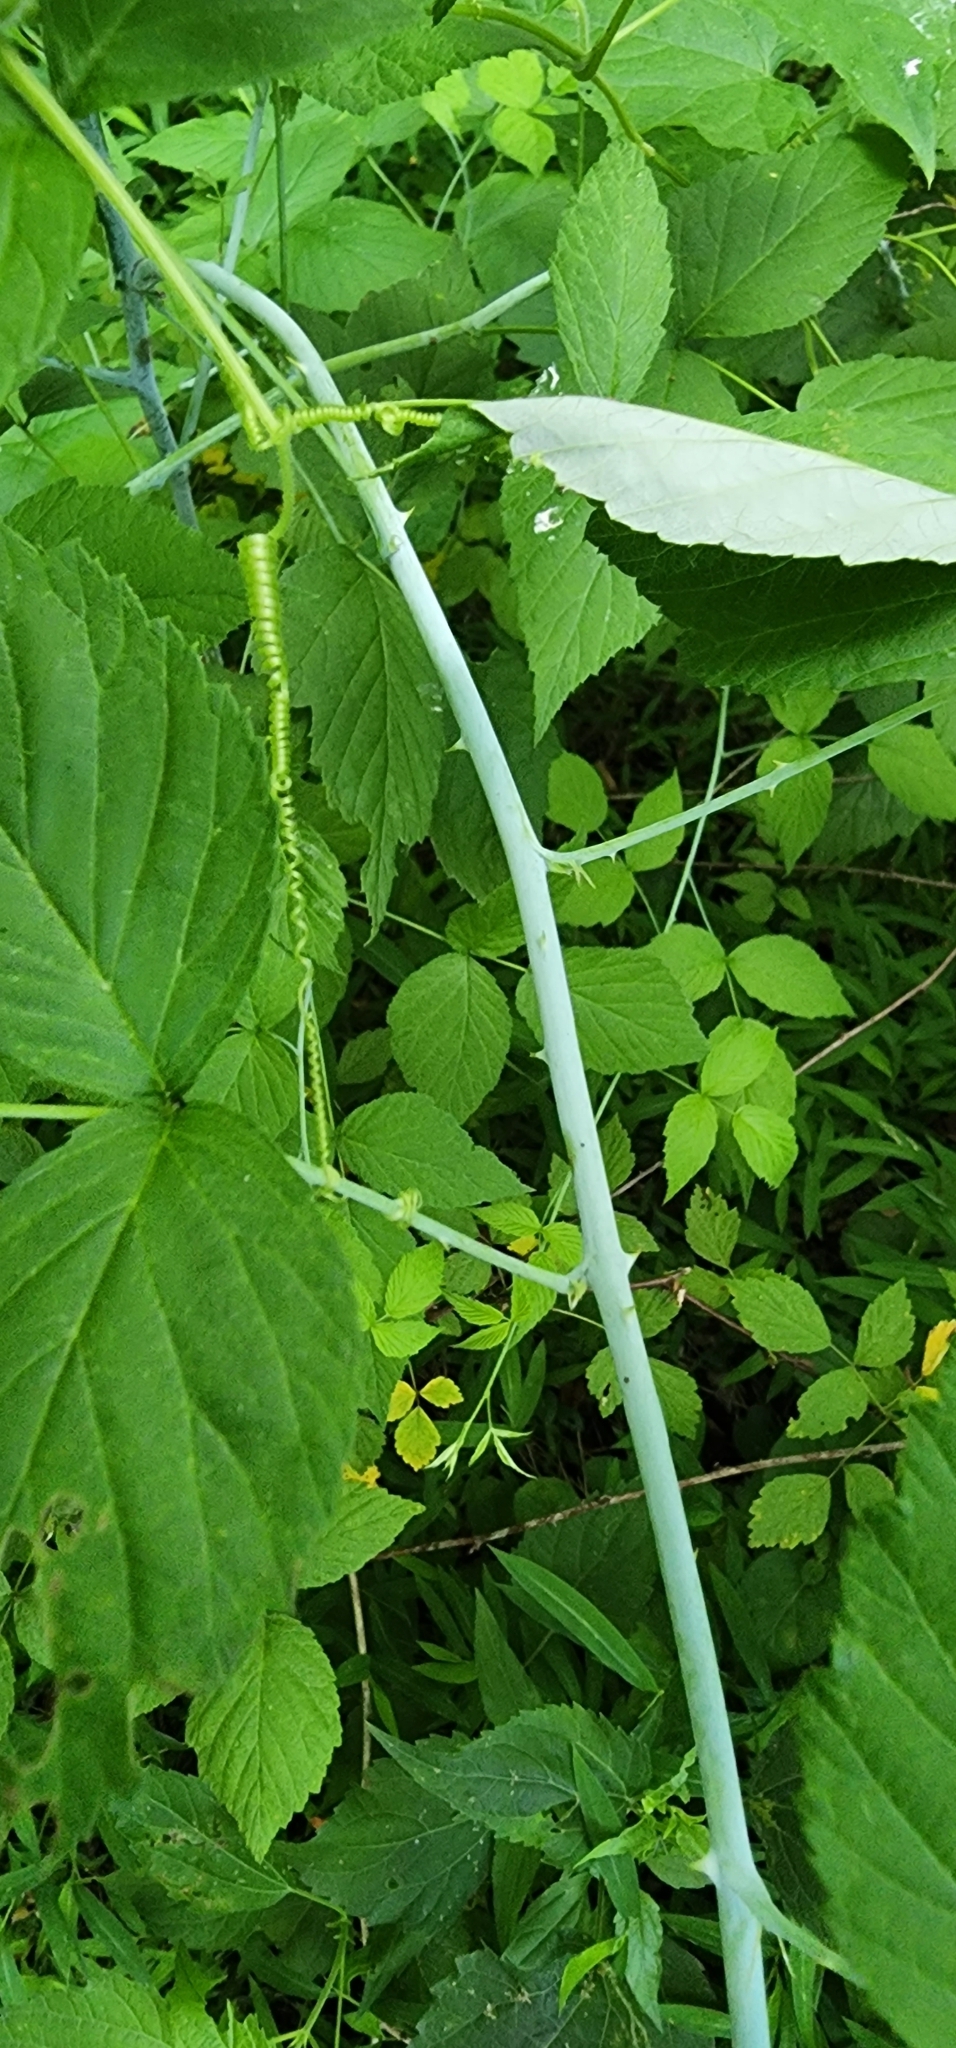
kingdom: Plantae
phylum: Tracheophyta
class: Magnoliopsida
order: Rosales
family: Rosaceae
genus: Rubus
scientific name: Rubus occidentalis
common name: Black raspberry
